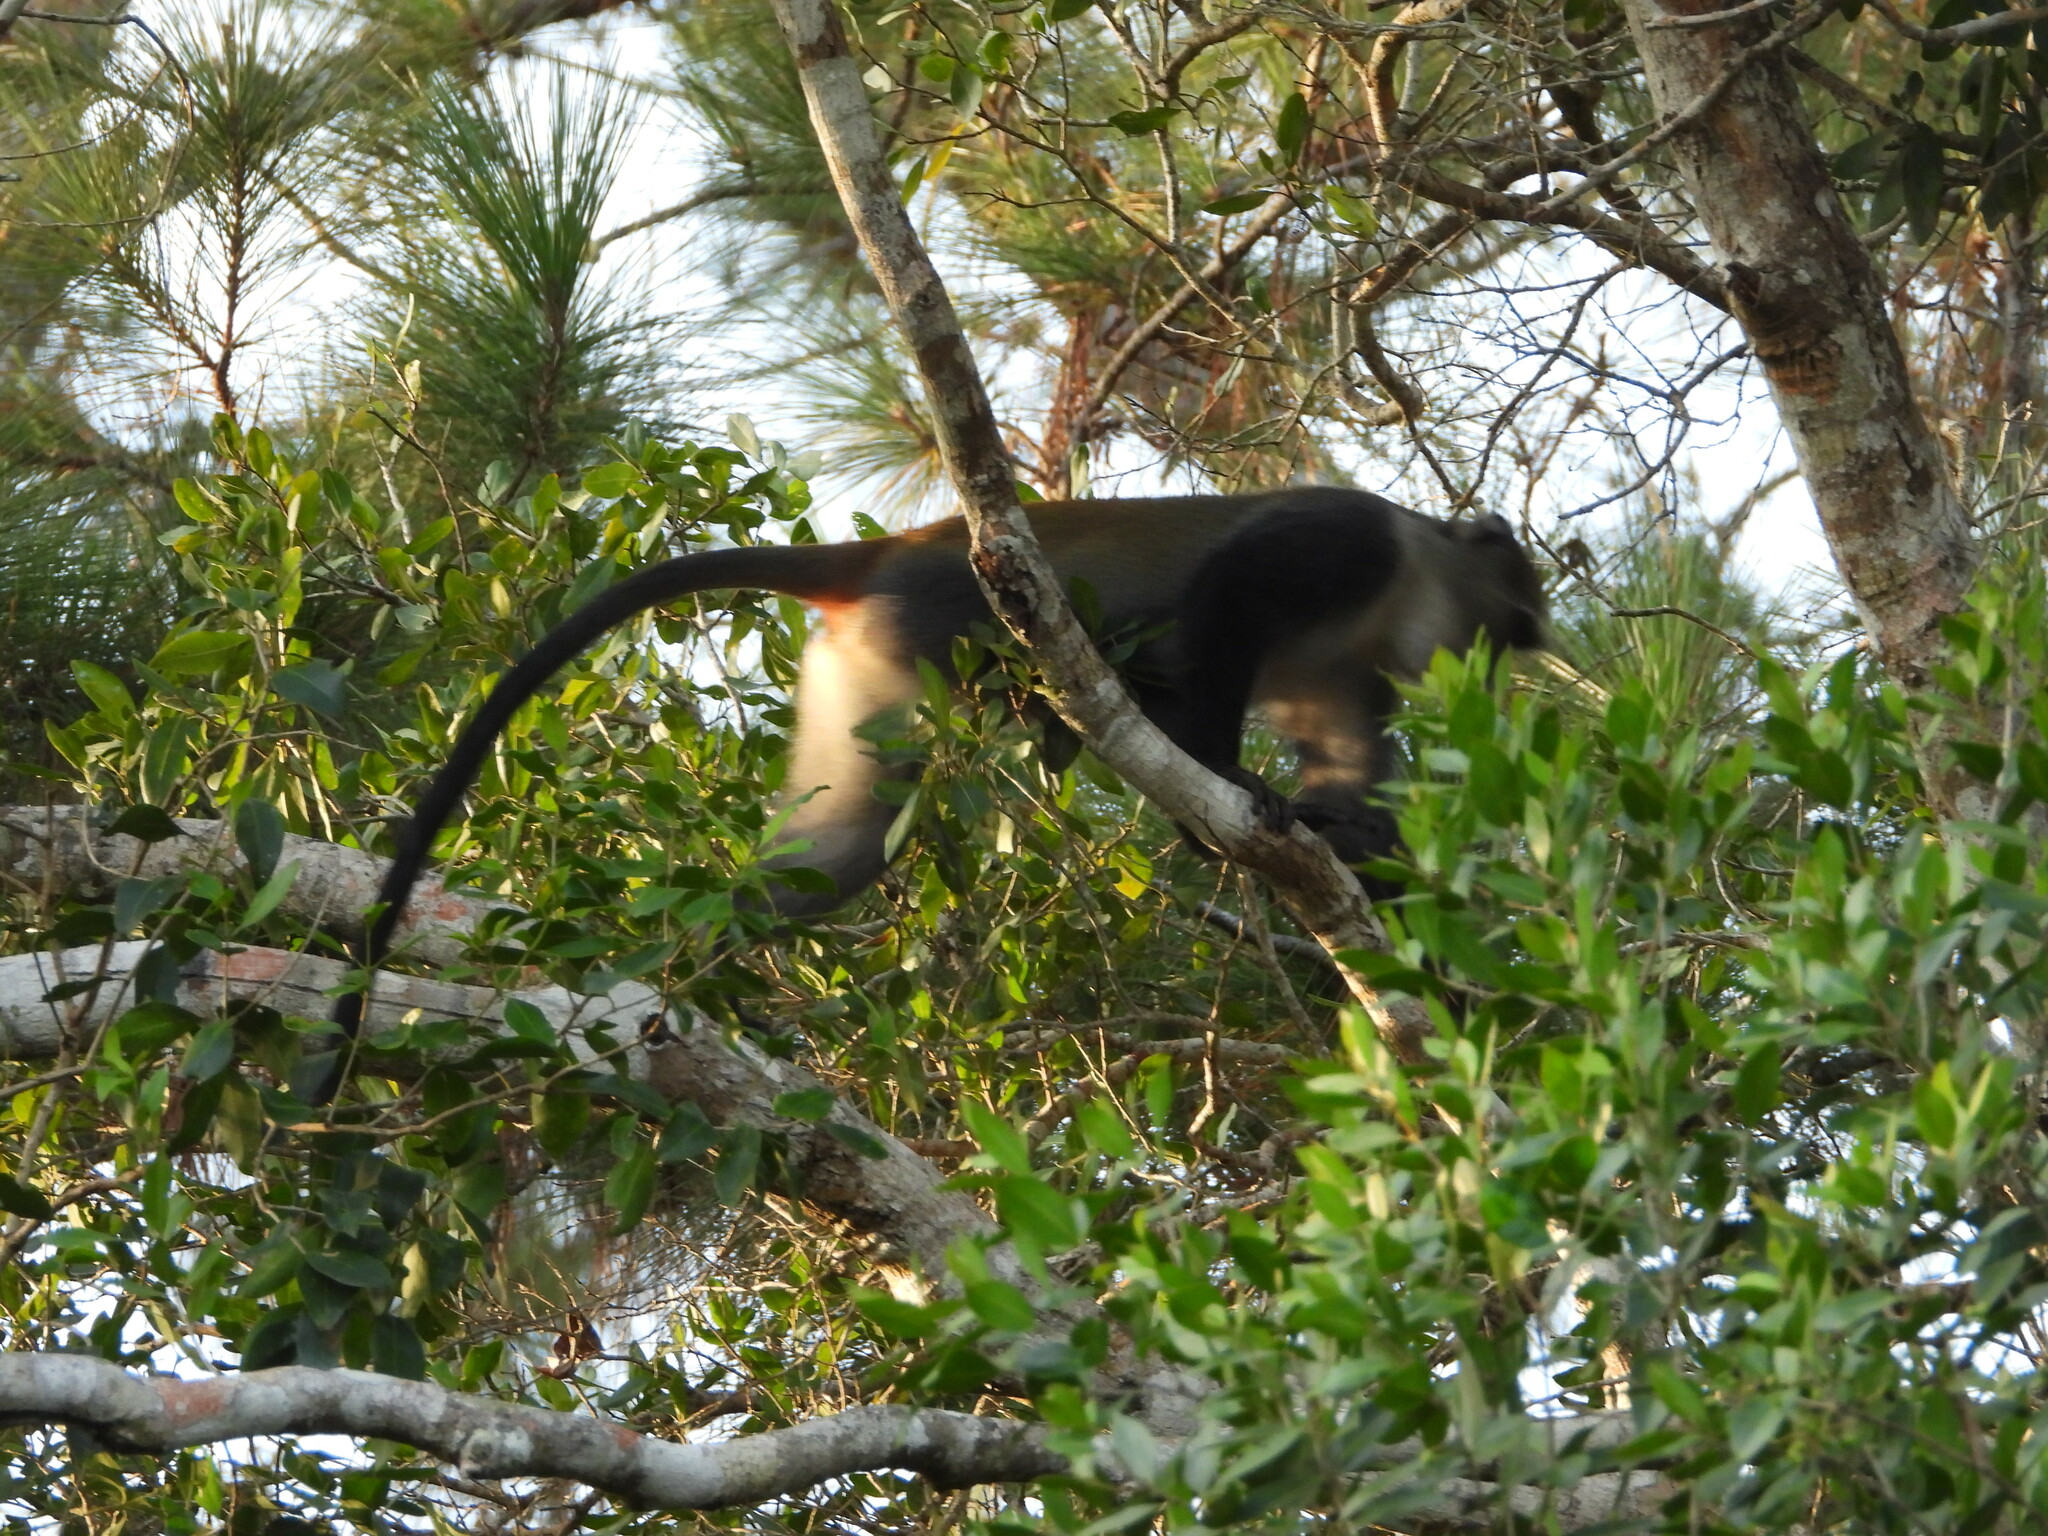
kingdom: Animalia
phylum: Chordata
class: Mammalia
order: Primates
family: Cercopithecidae
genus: Cercopithecus
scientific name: Cercopithecus mitis
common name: Blue monkey
